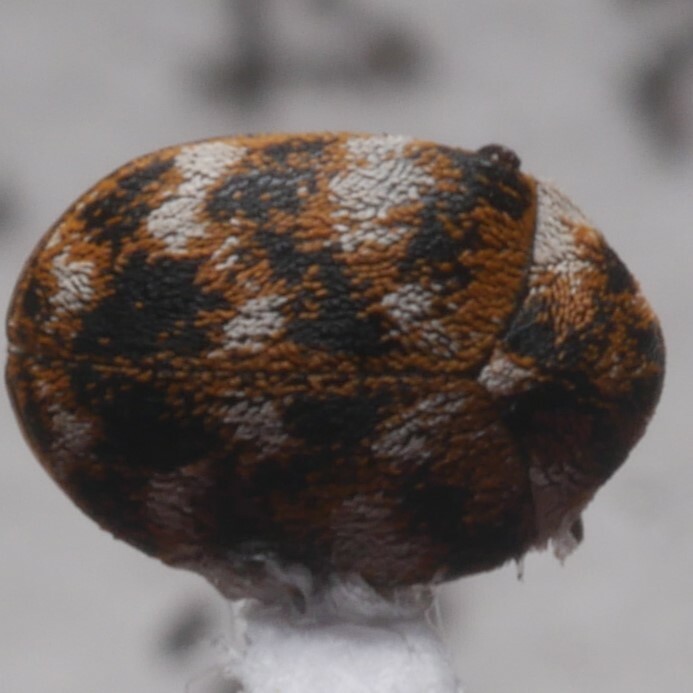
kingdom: Animalia
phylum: Arthropoda
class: Insecta
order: Coleoptera
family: Dermestidae
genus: Anthrenus
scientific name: Anthrenus verbasci
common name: Varied carpet beetle
